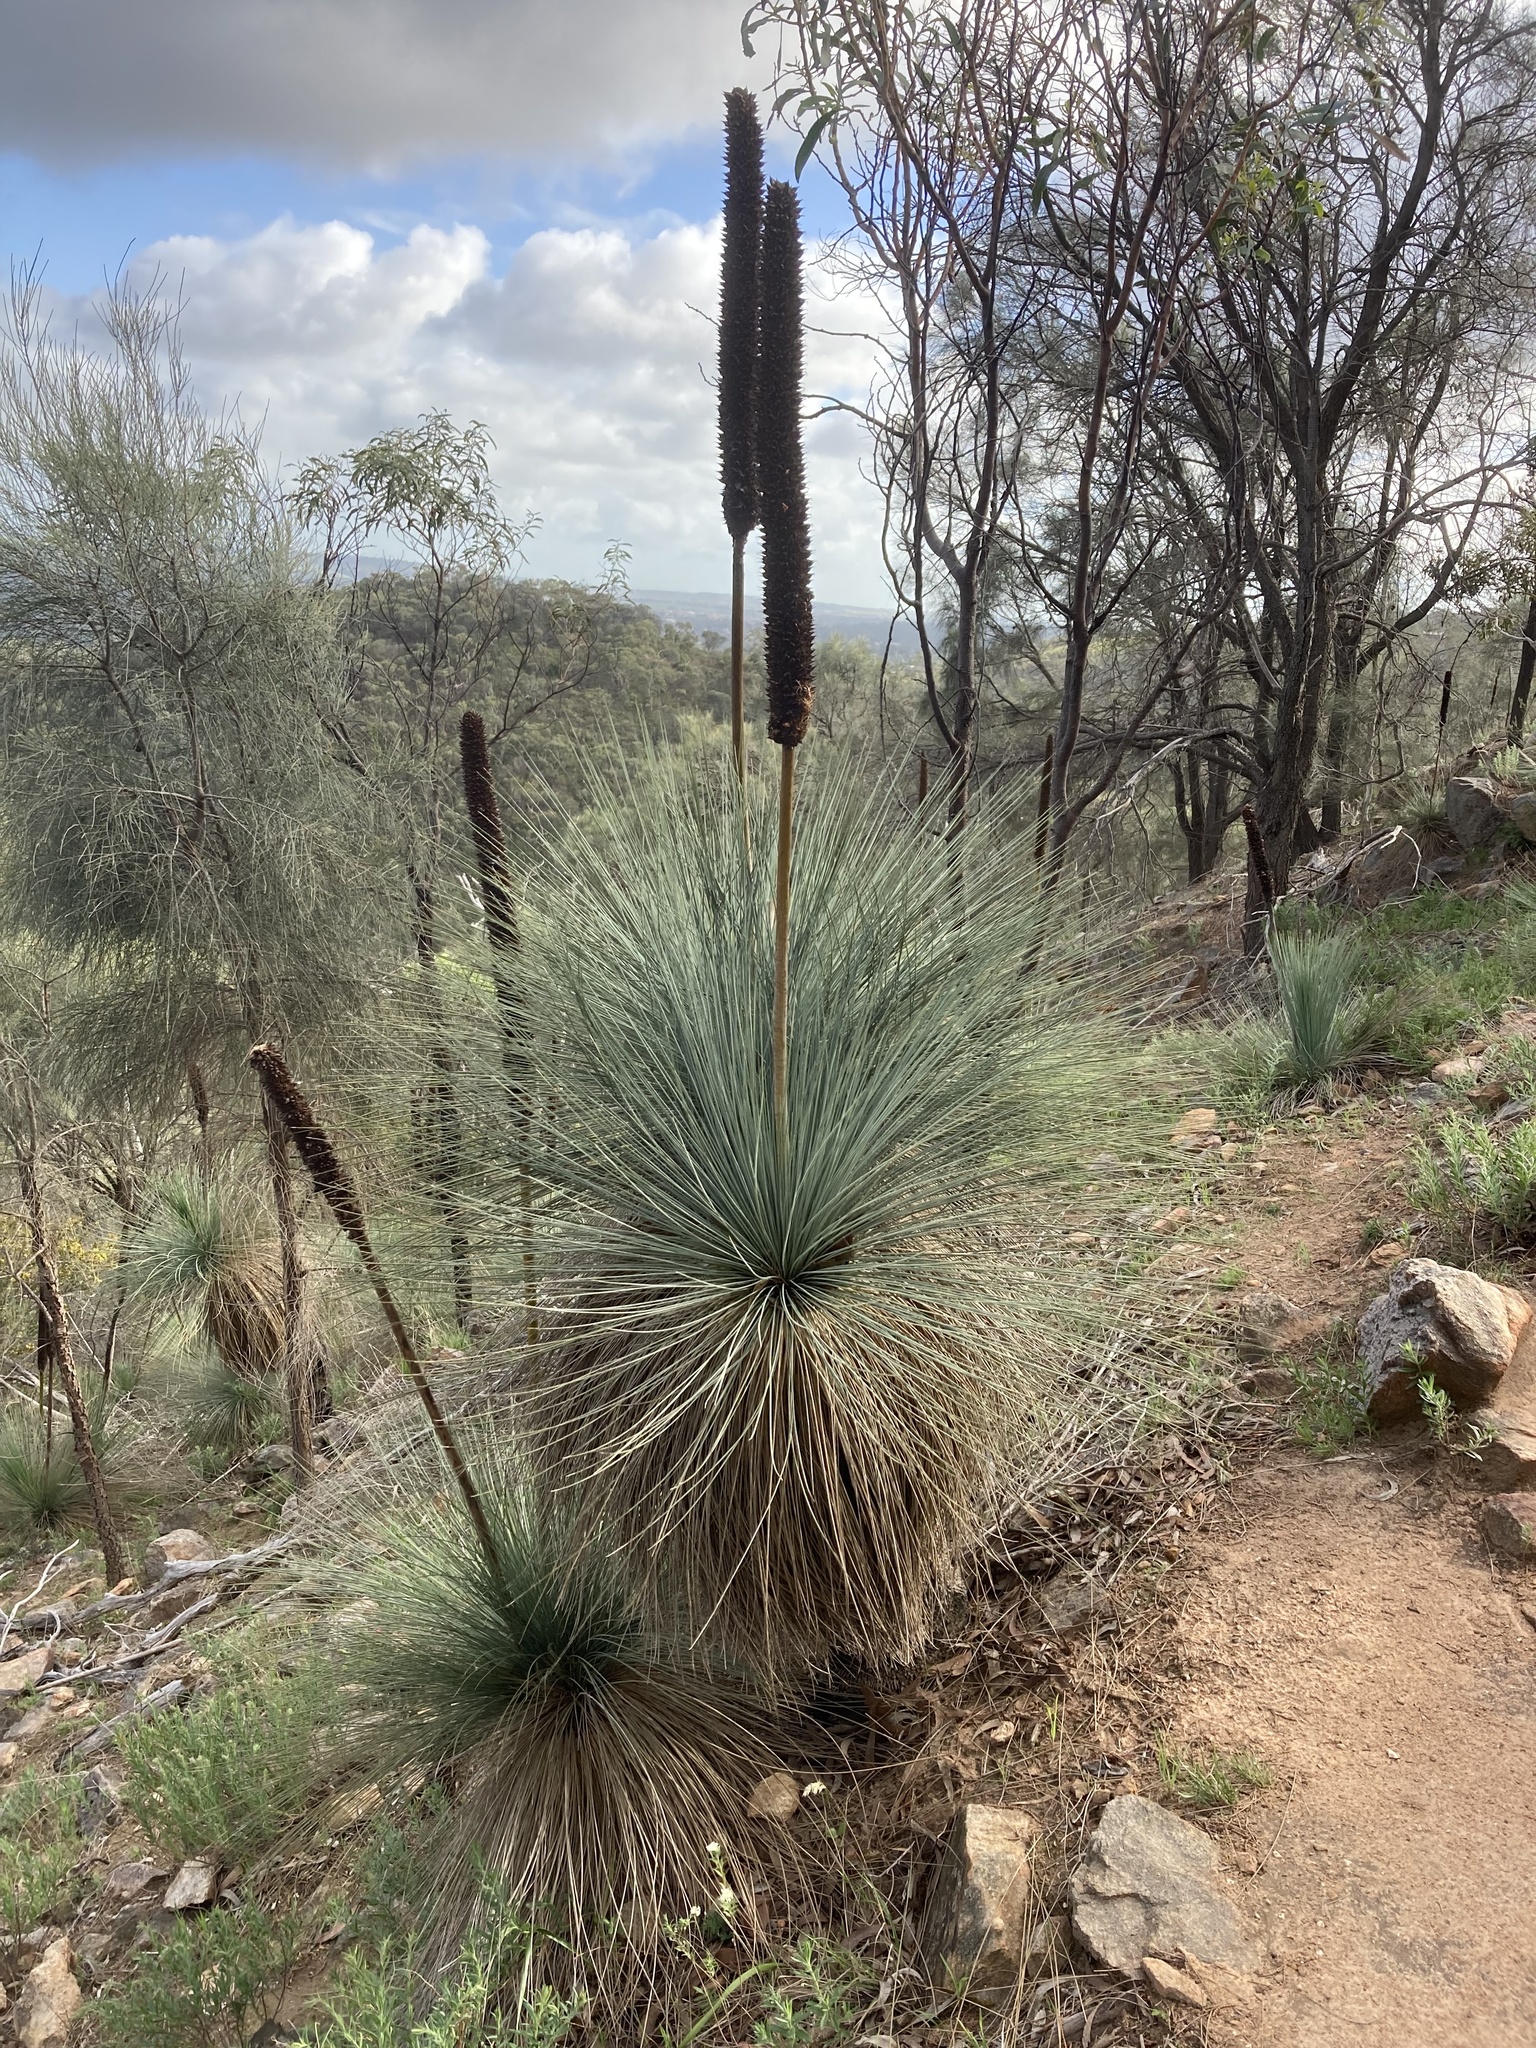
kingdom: Plantae
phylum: Tracheophyta
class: Liliopsida
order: Asparagales
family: Asphodelaceae
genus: Xanthorrhoea
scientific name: Xanthorrhoea quadrangulata
